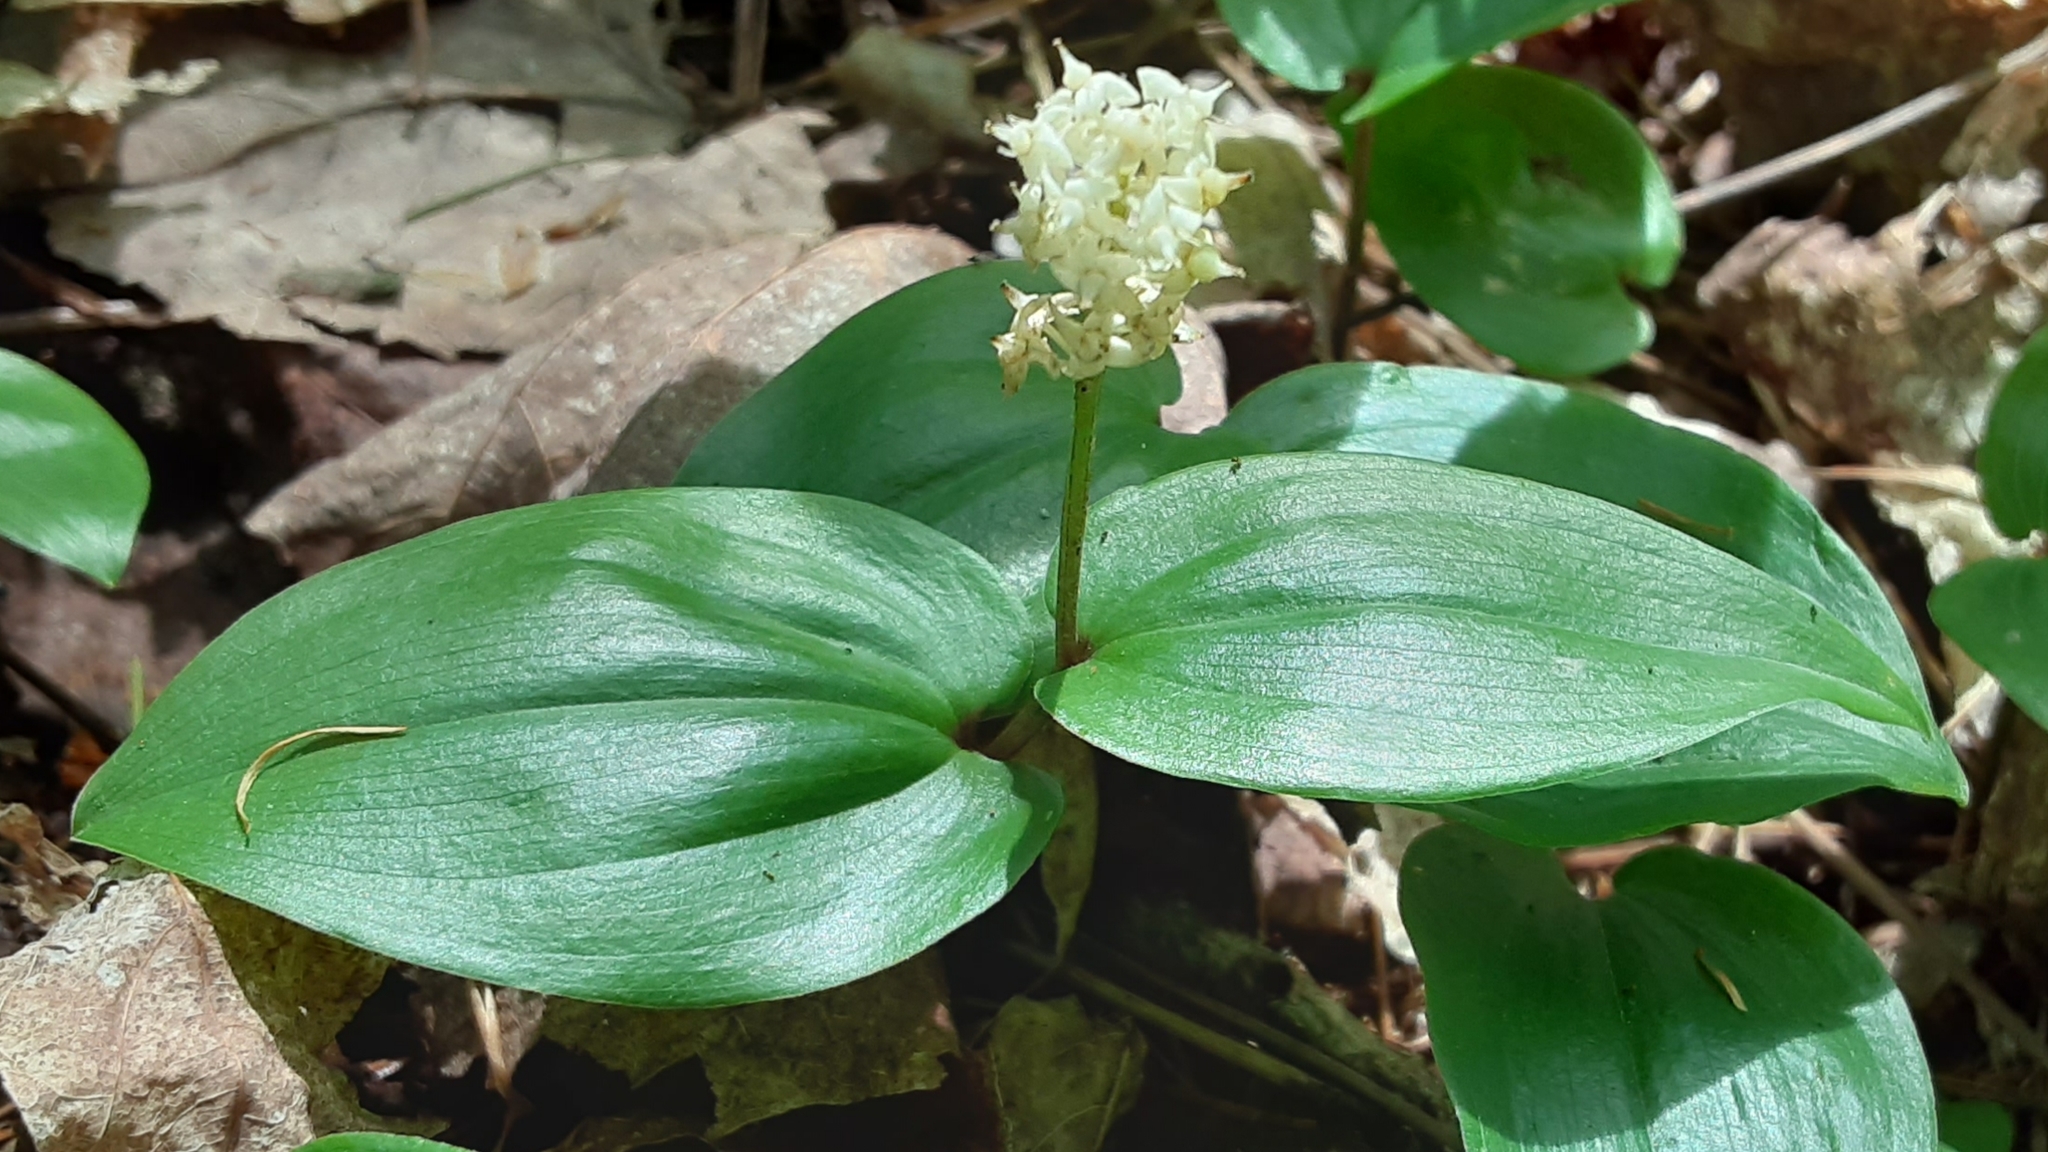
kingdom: Plantae
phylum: Tracheophyta
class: Liliopsida
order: Asparagales
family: Asparagaceae
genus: Maianthemum
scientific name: Maianthemum canadense
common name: False lily-of-the-valley
